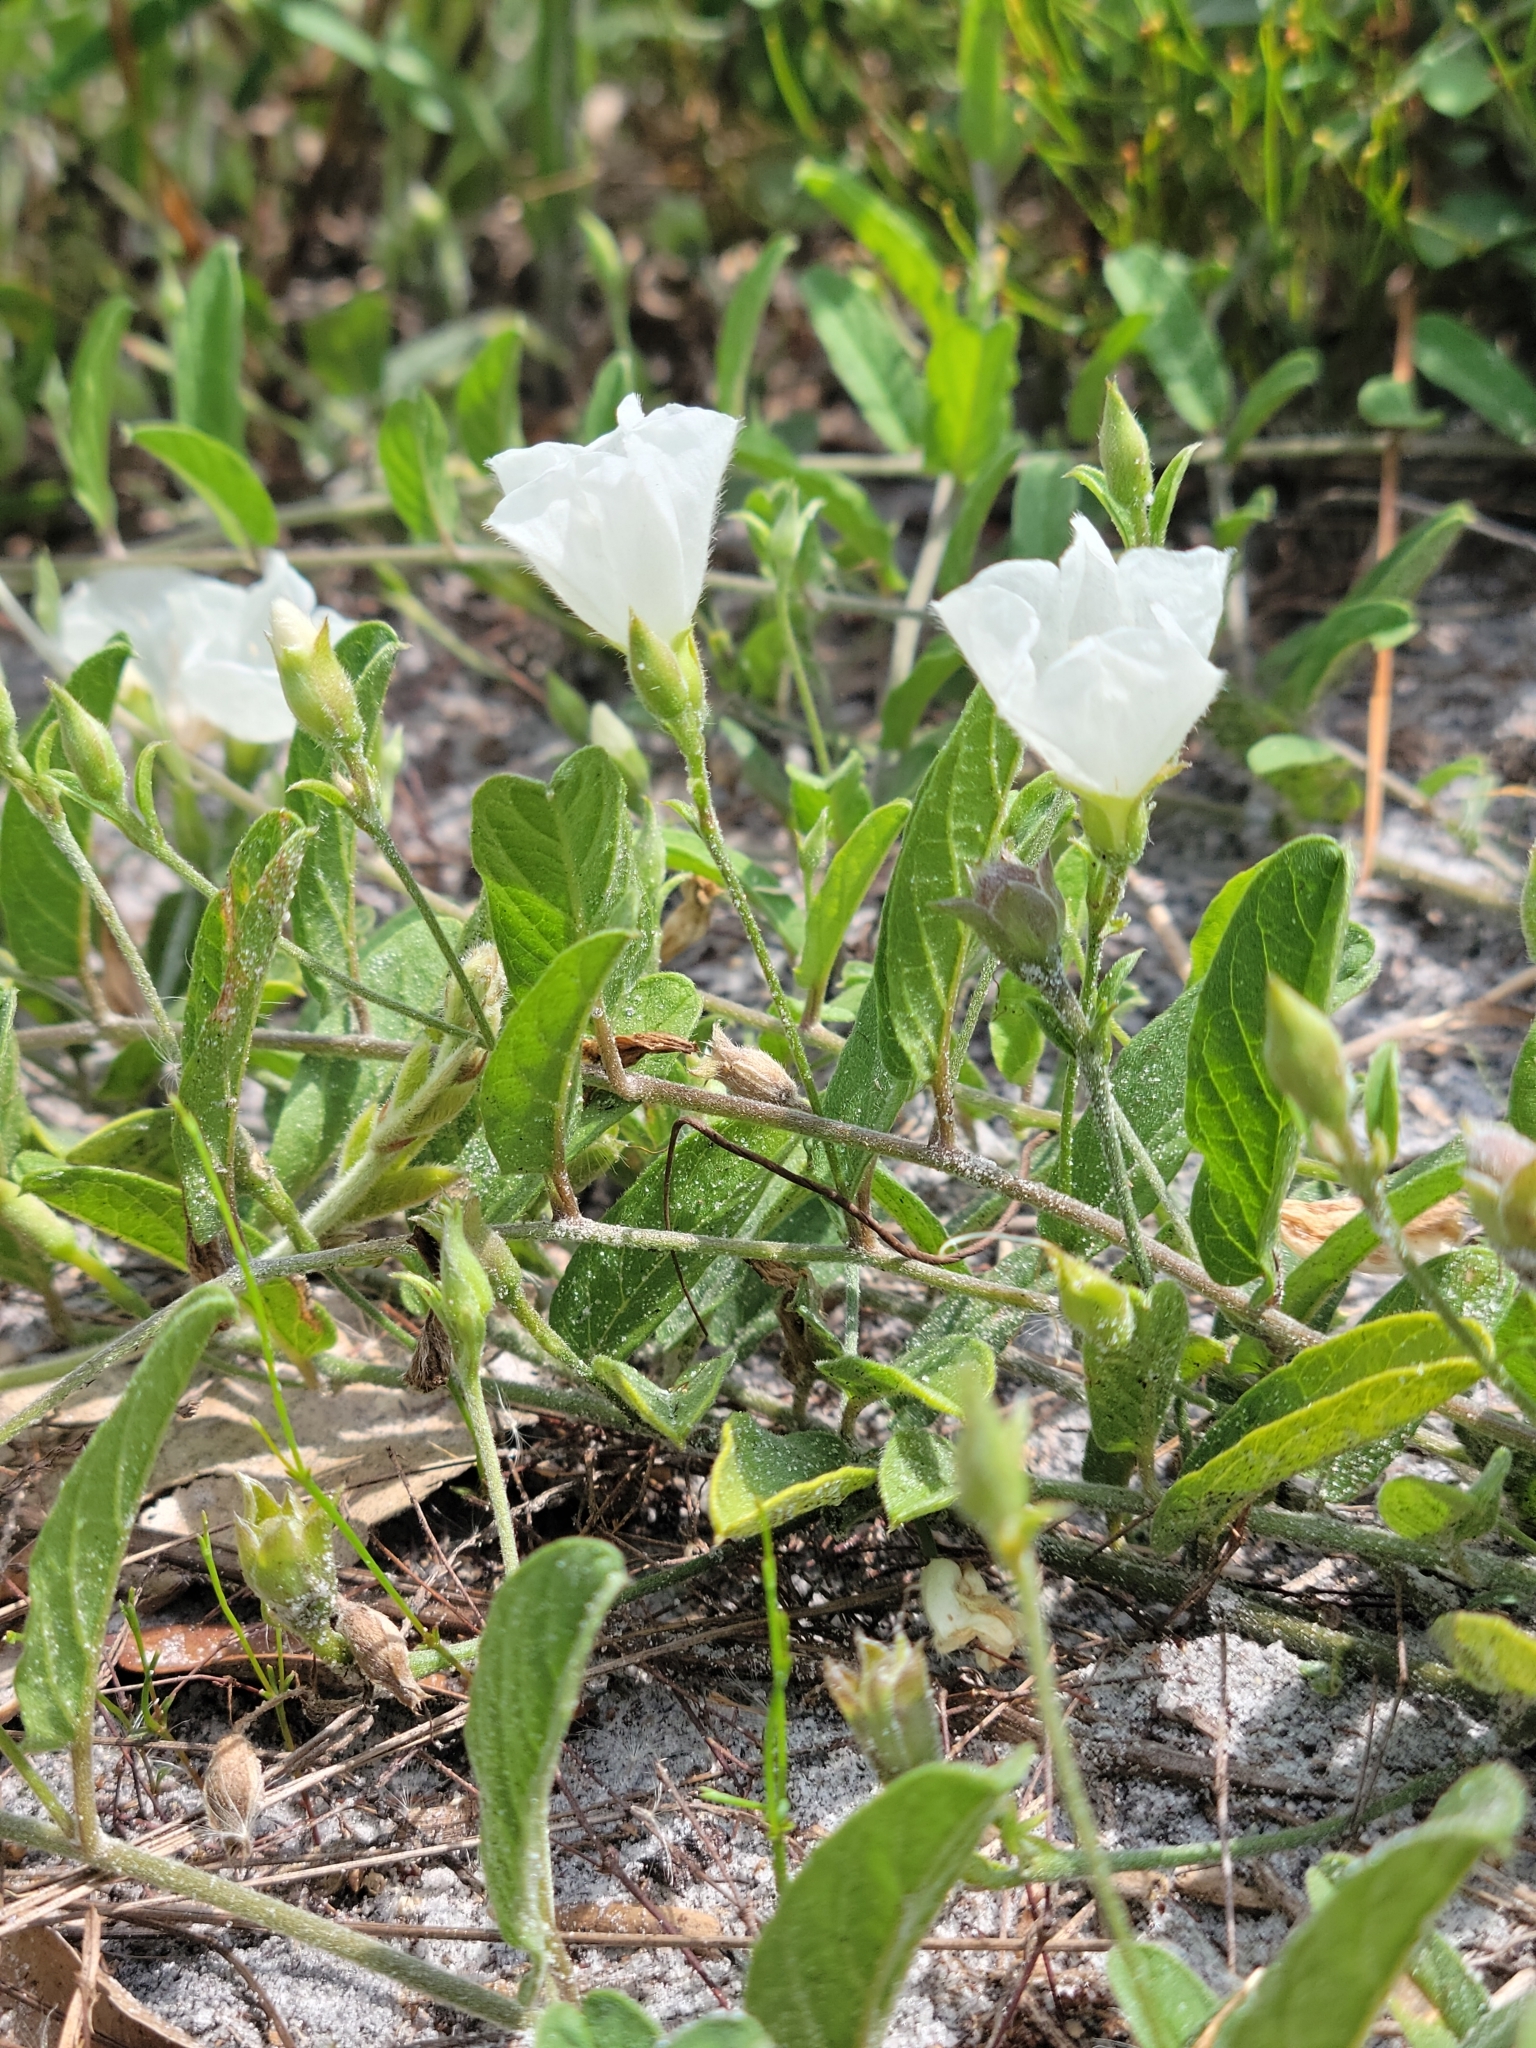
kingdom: Plantae
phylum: Tracheophyta
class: Magnoliopsida
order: Solanales
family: Convolvulaceae
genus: Stylisma
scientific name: Stylisma villosa
